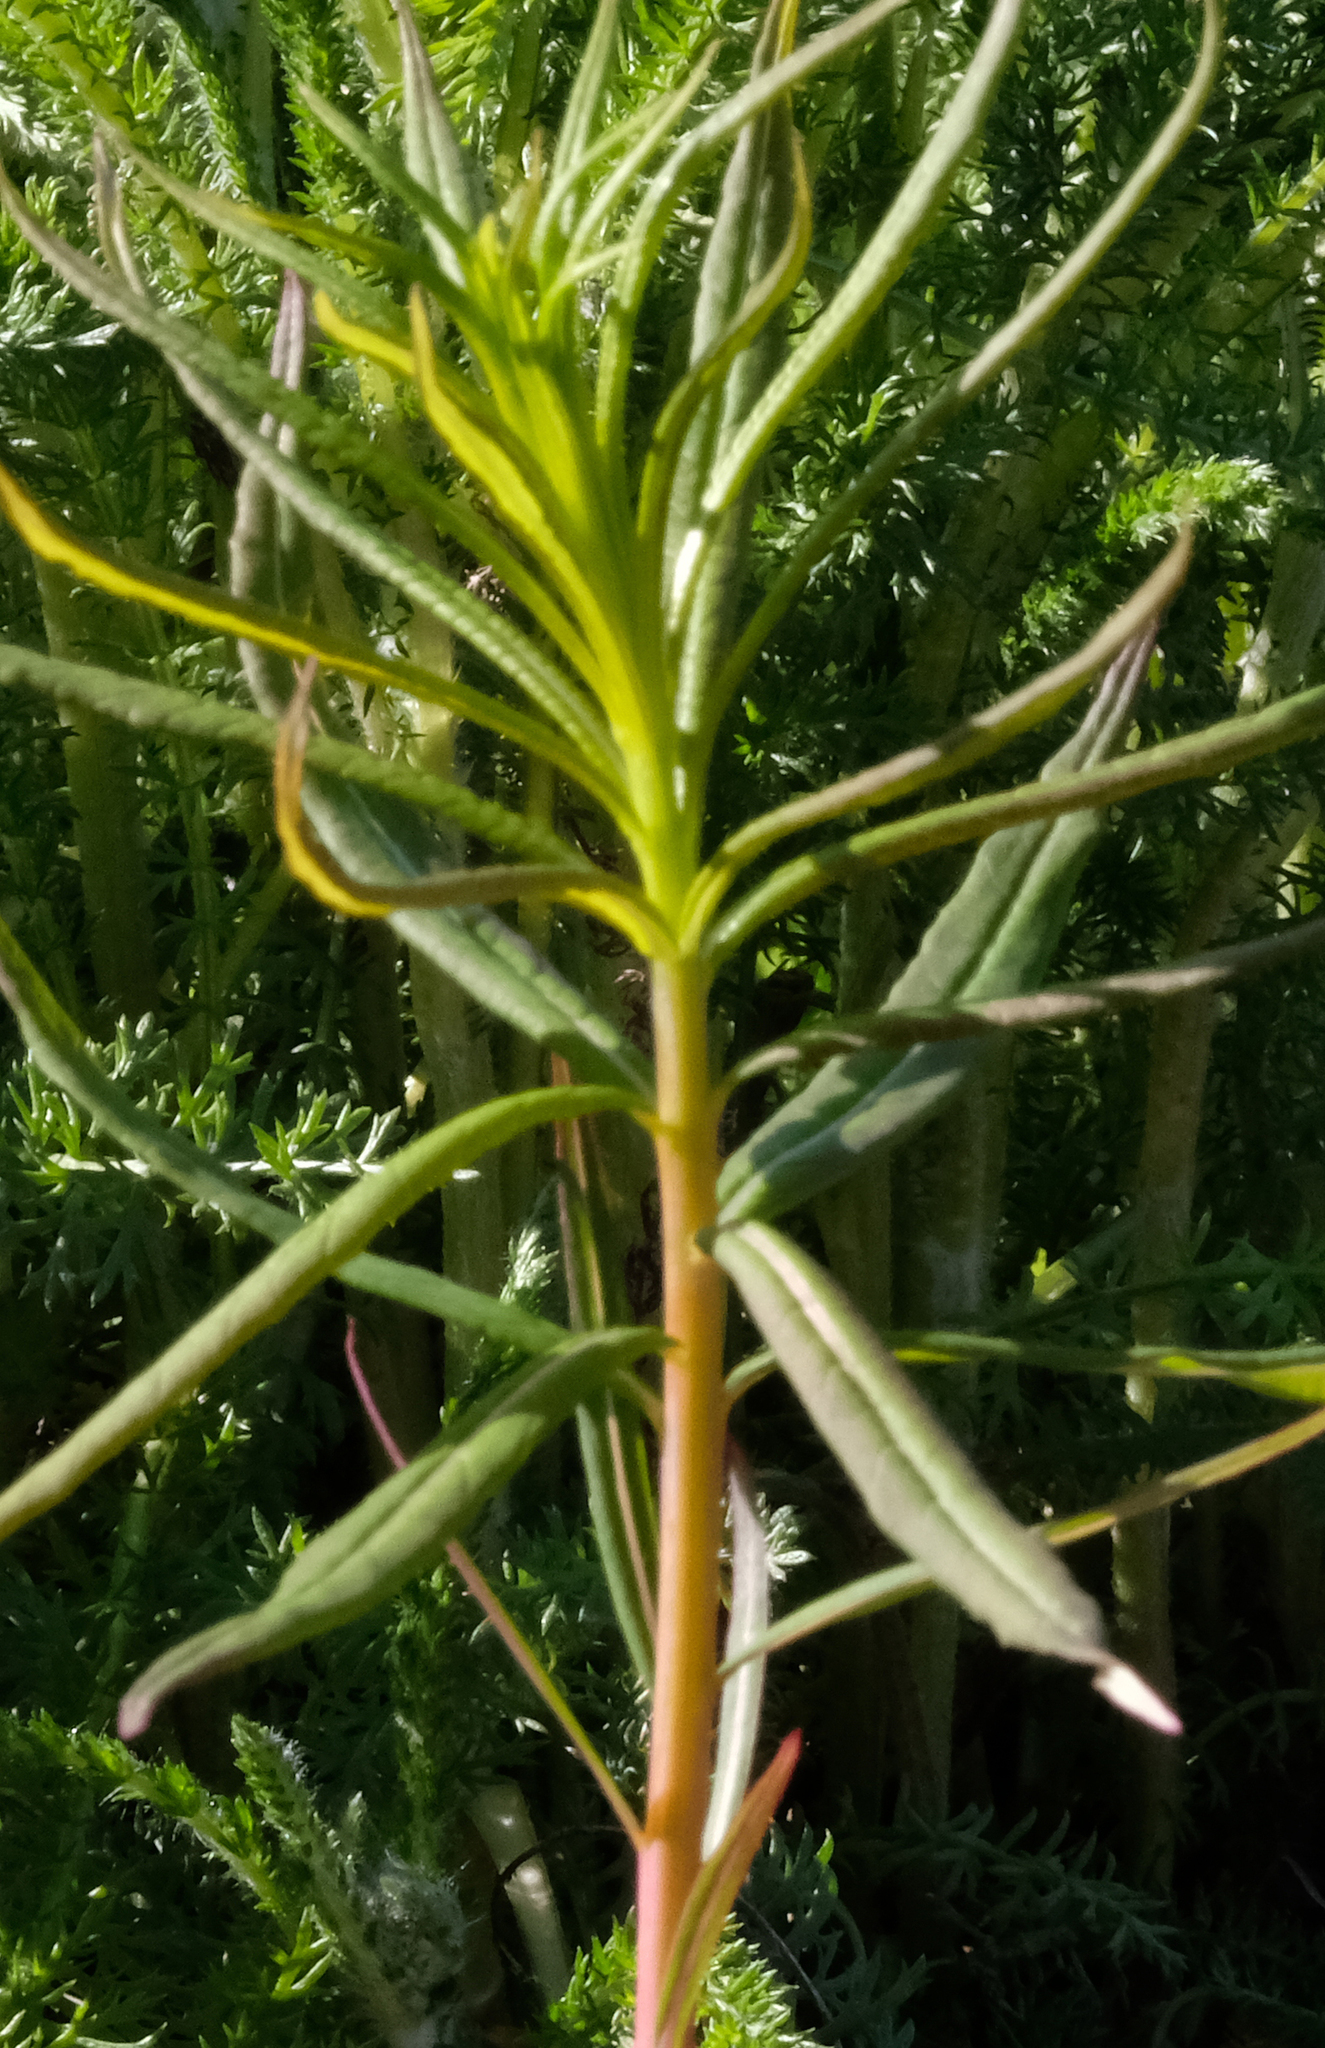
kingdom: Plantae
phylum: Tracheophyta
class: Magnoliopsida
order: Myrtales
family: Onagraceae
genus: Chamaenerion
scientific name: Chamaenerion angustifolium
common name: Fireweed
